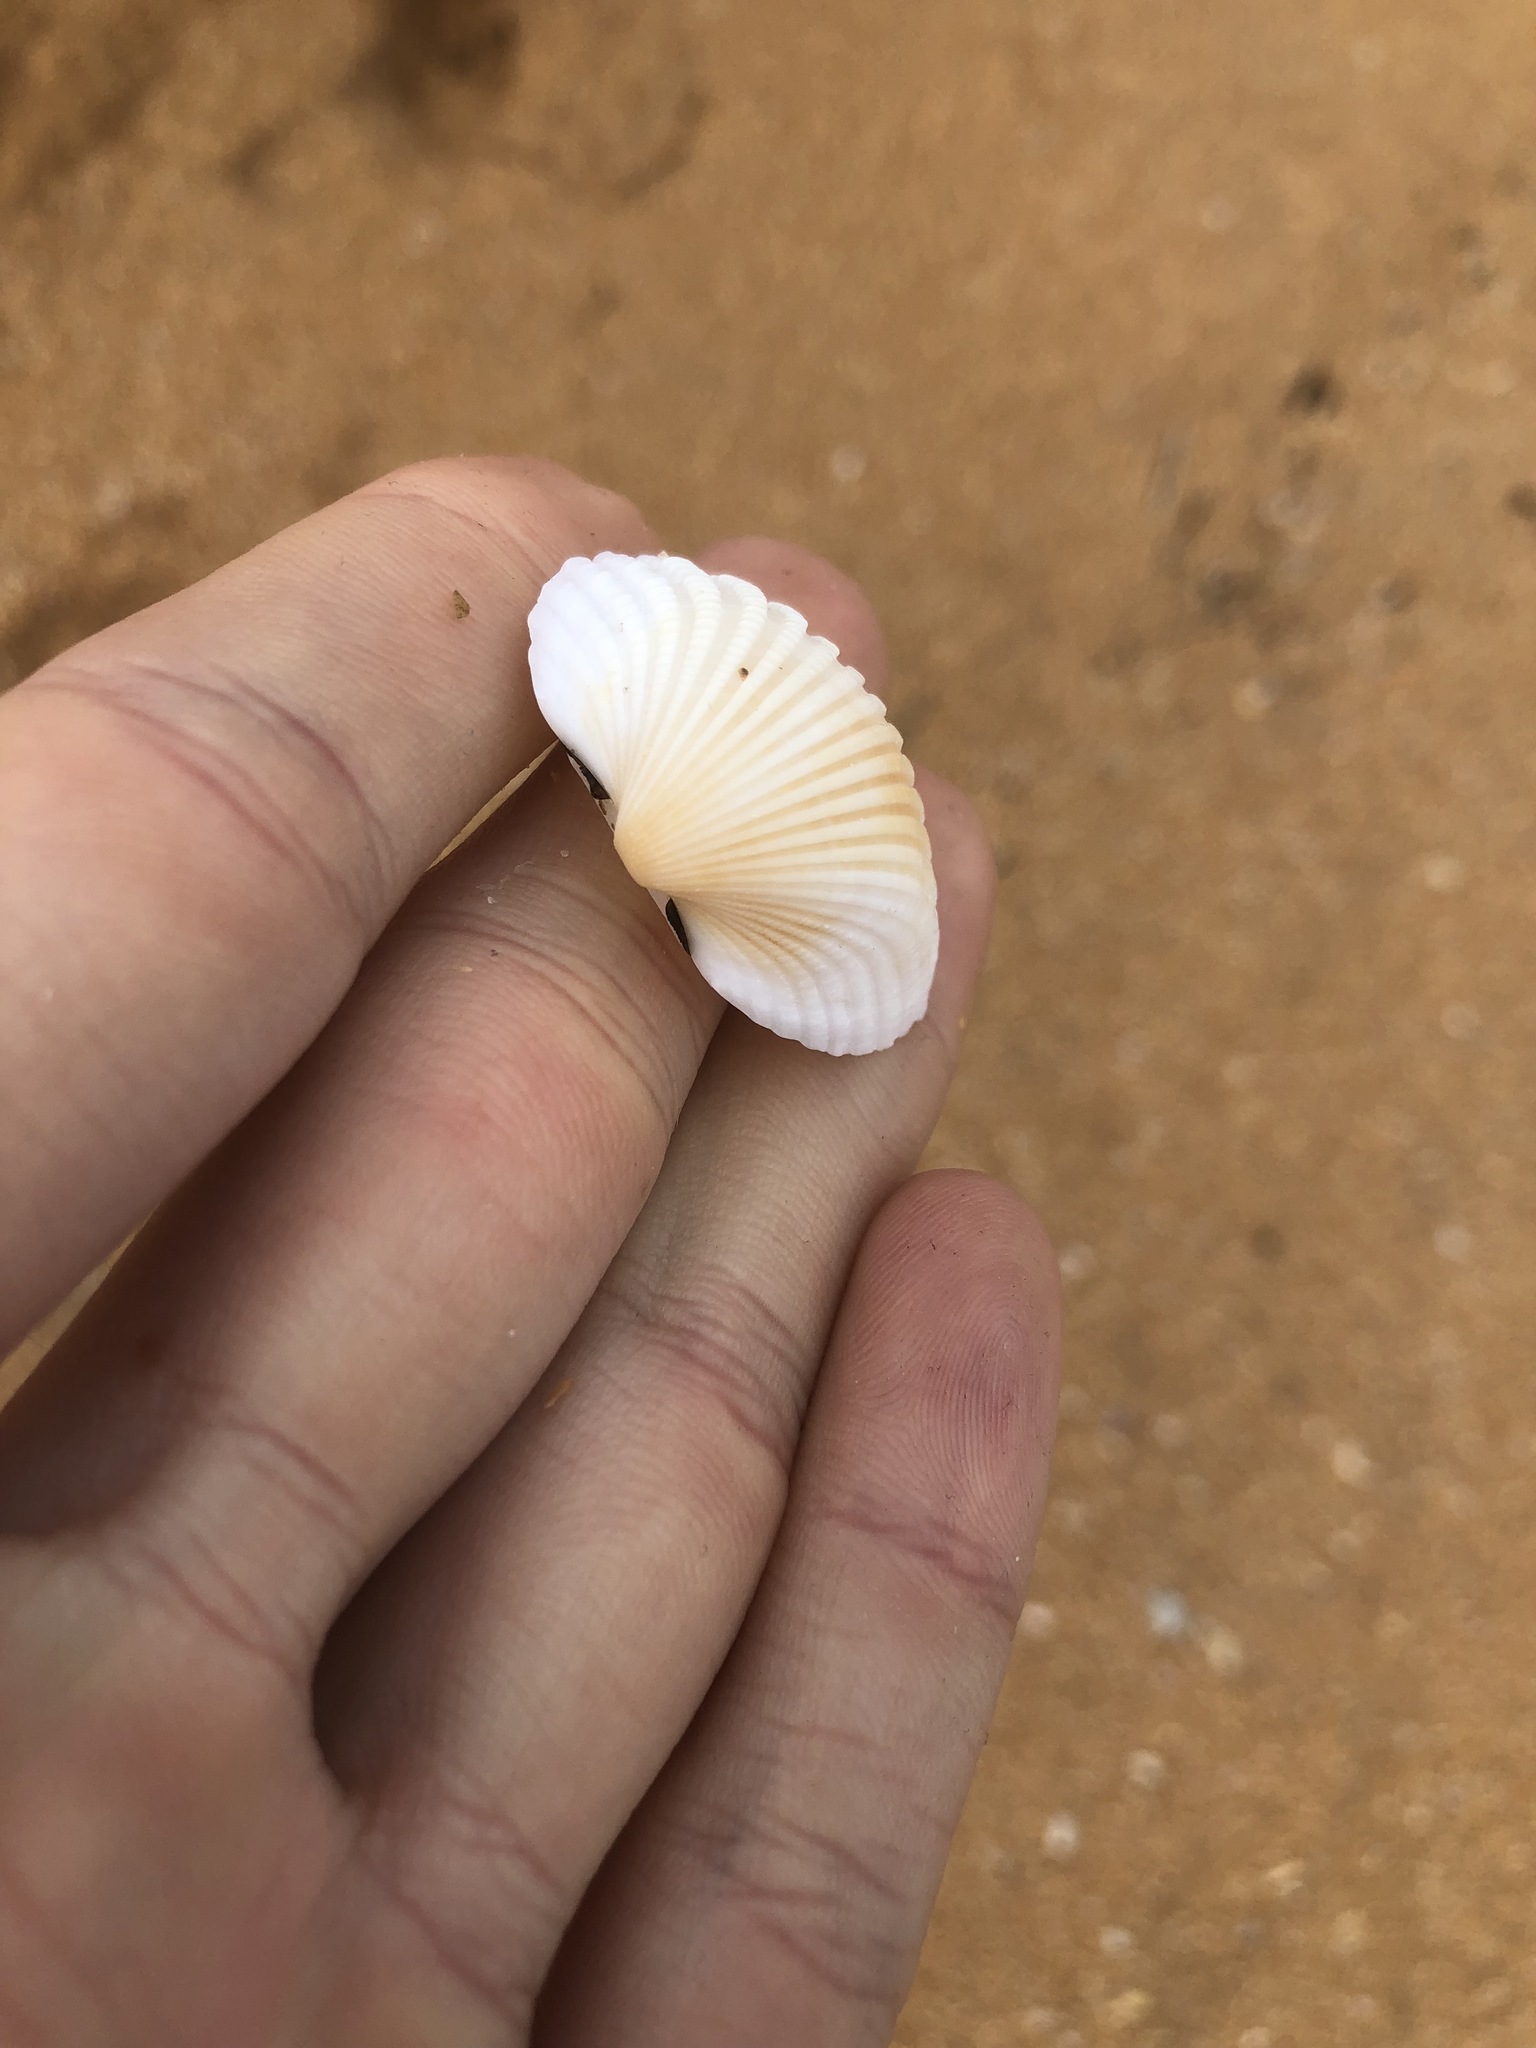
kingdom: Animalia
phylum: Mollusca
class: Bivalvia
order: Arcida
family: Arcidae
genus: Anadara
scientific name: Anadara brasiliana
